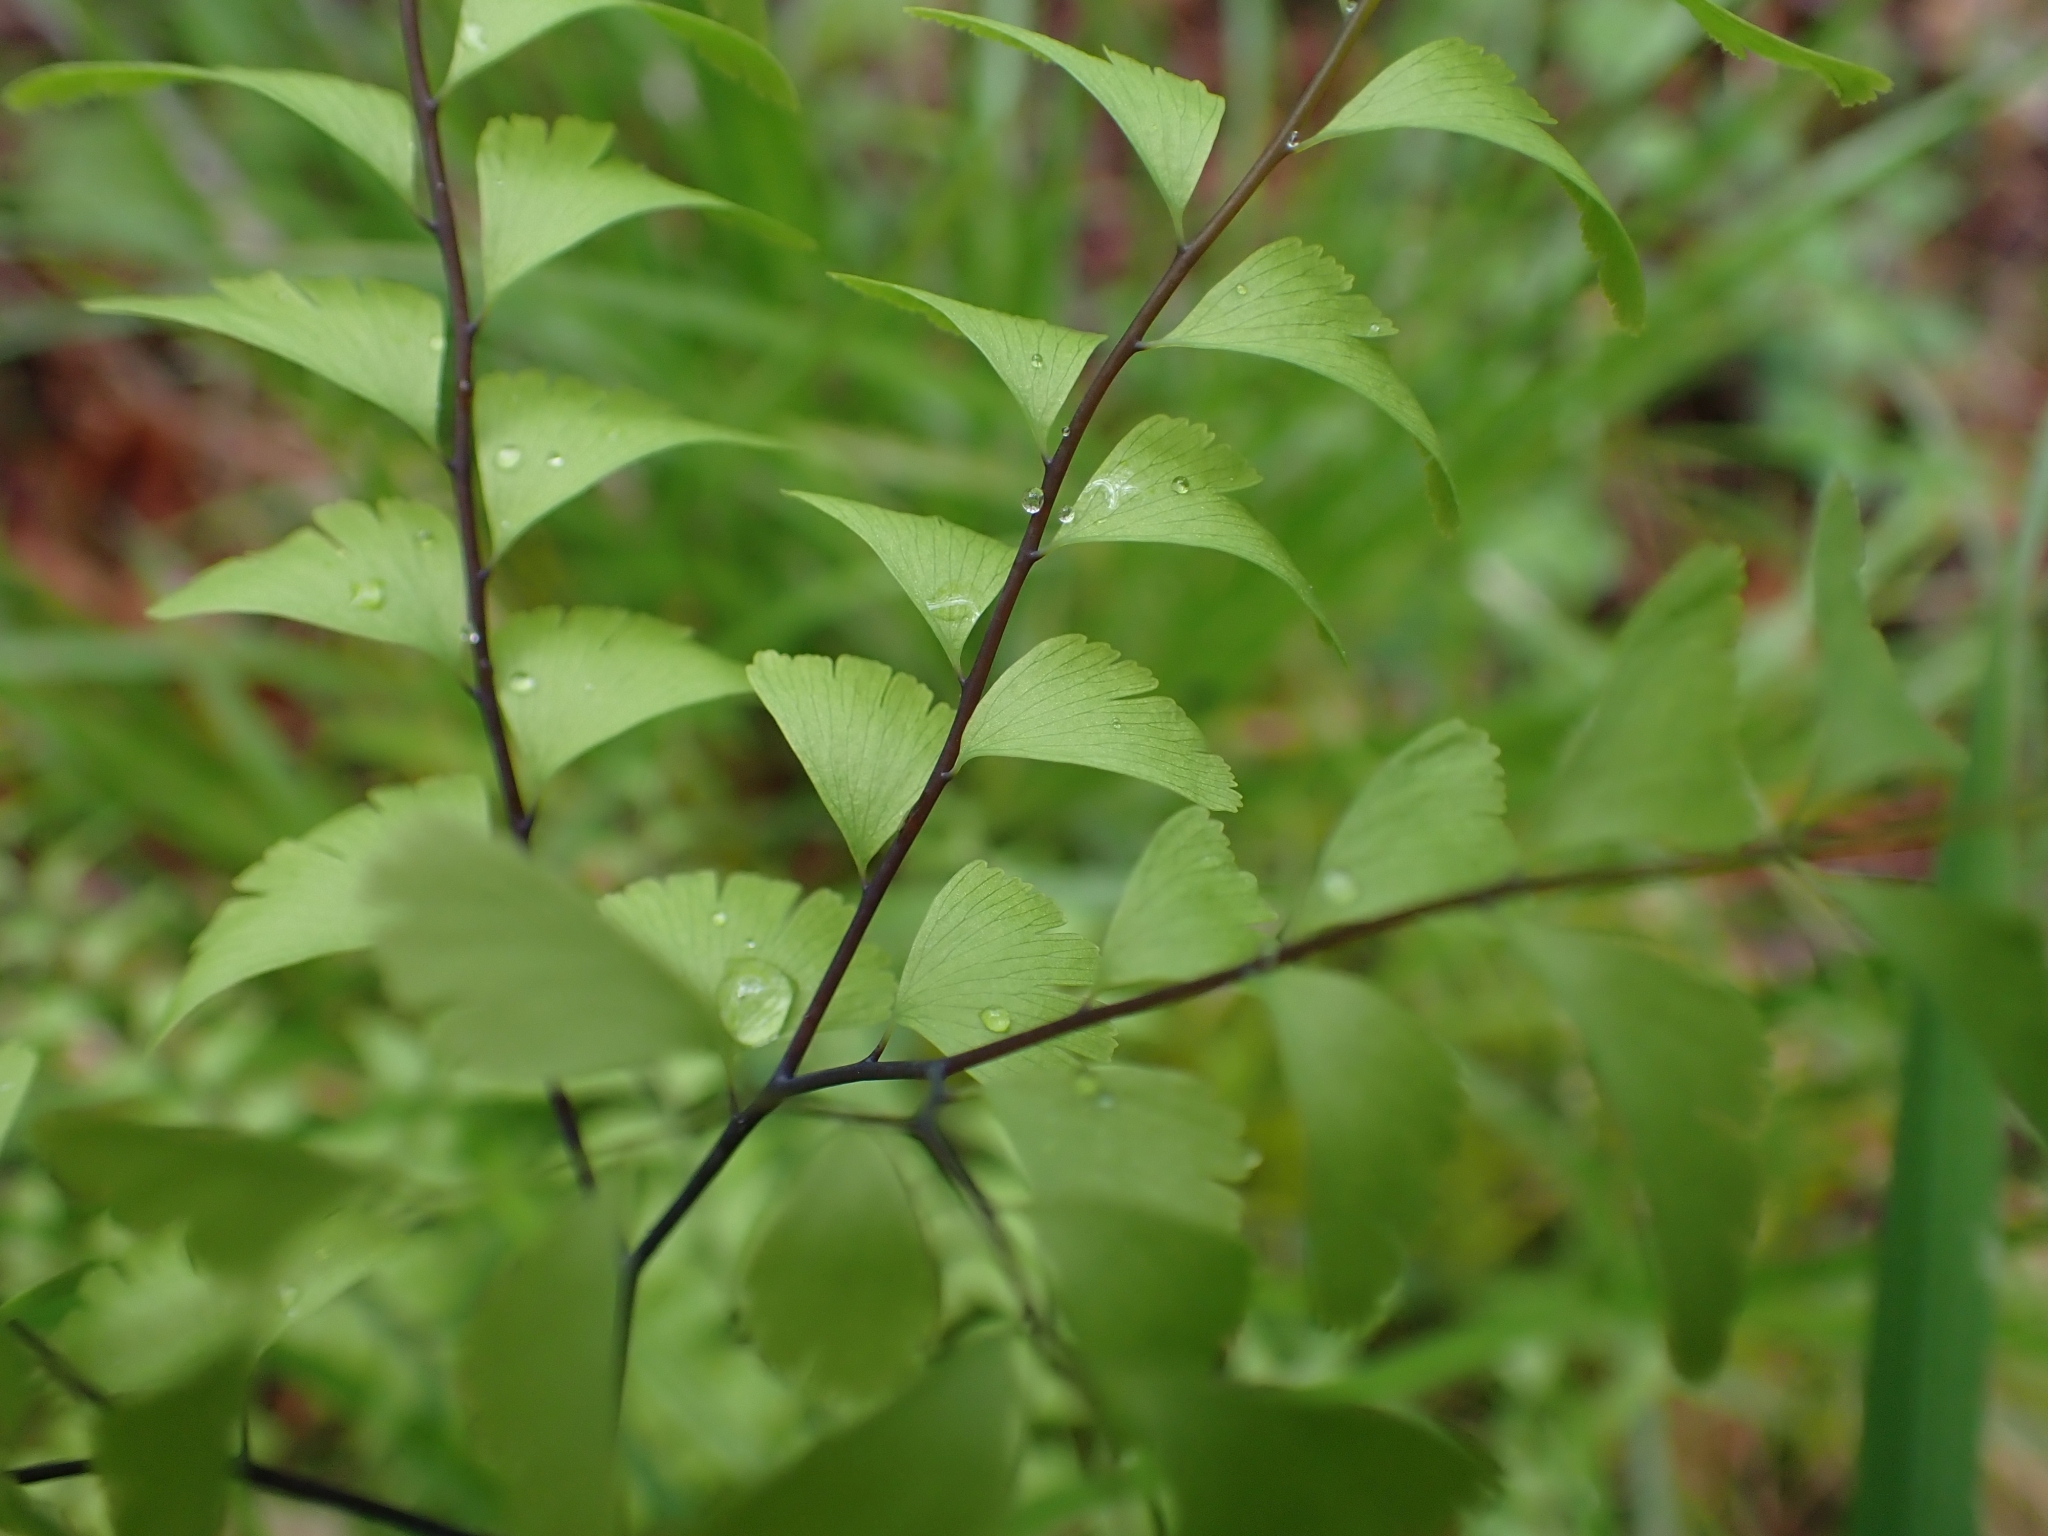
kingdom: Plantae
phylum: Tracheophyta
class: Polypodiopsida
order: Polypodiales
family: Pteridaceae
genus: Adiantum
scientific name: Adiantum aleuticum
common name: Aleutian maidenhair fern
